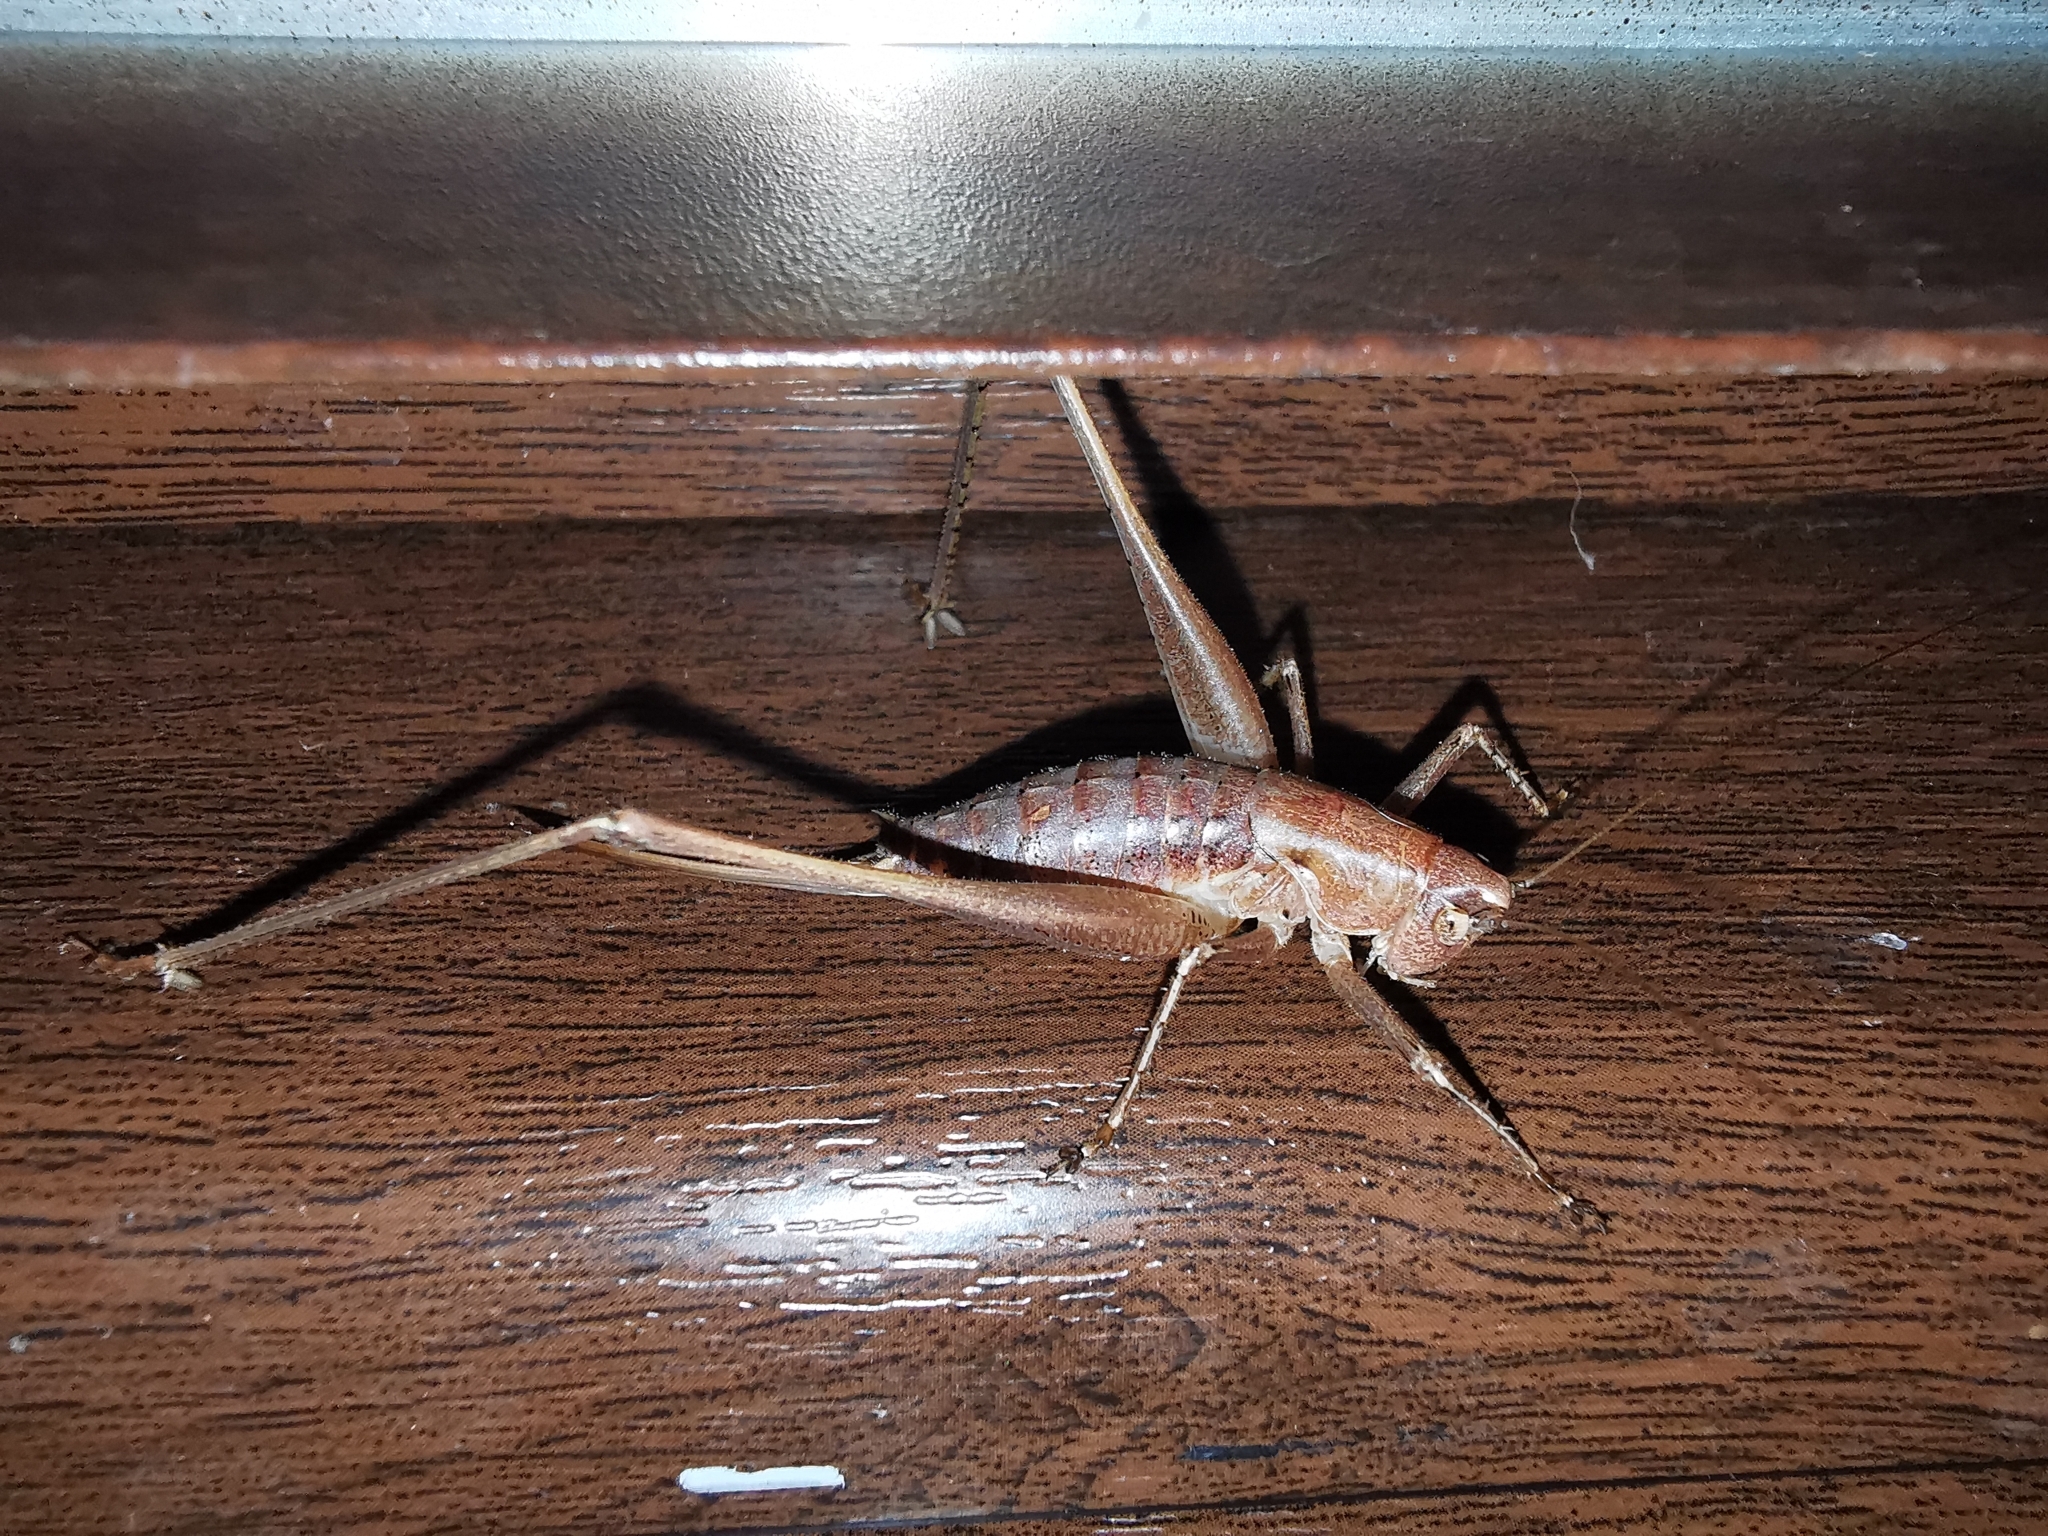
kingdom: Animalia
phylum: Arthropoda
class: Insecta
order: Orthoptera
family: Tettigoniidae
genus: Rhacocleis
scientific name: Rhacocleis
